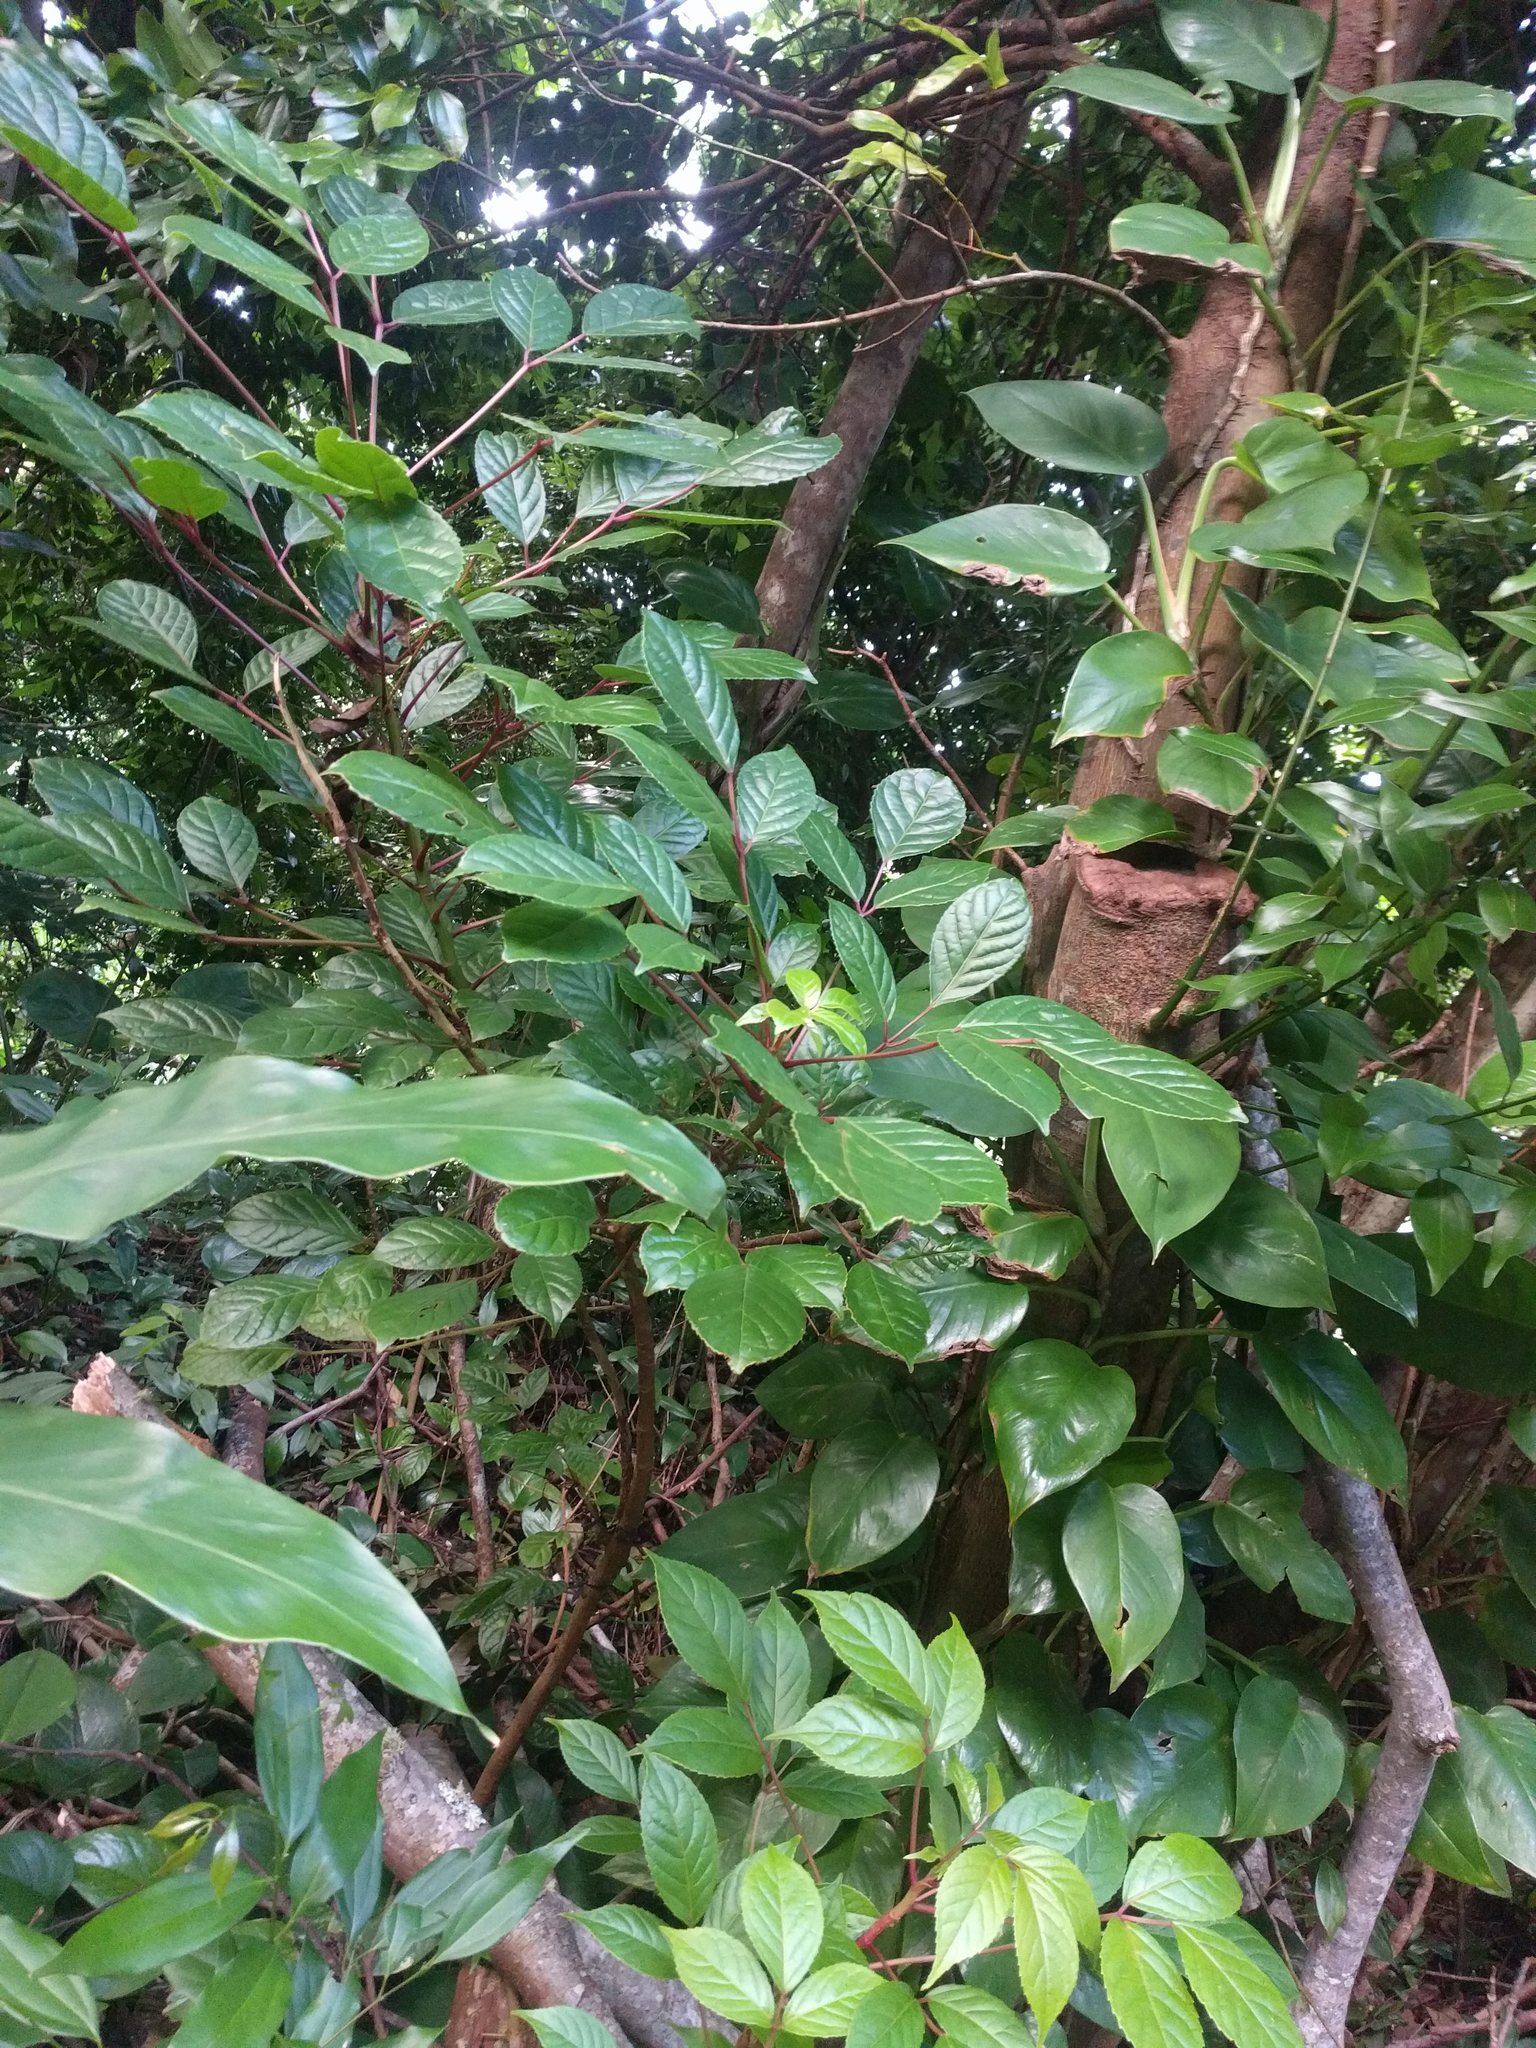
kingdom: Plantae
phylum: Tracheophyta
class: Magnoliopsida
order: Malpighiales
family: Phyllanthaceae
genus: Bischofia
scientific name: Bischofia javanica
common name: Javanese bishopwood
